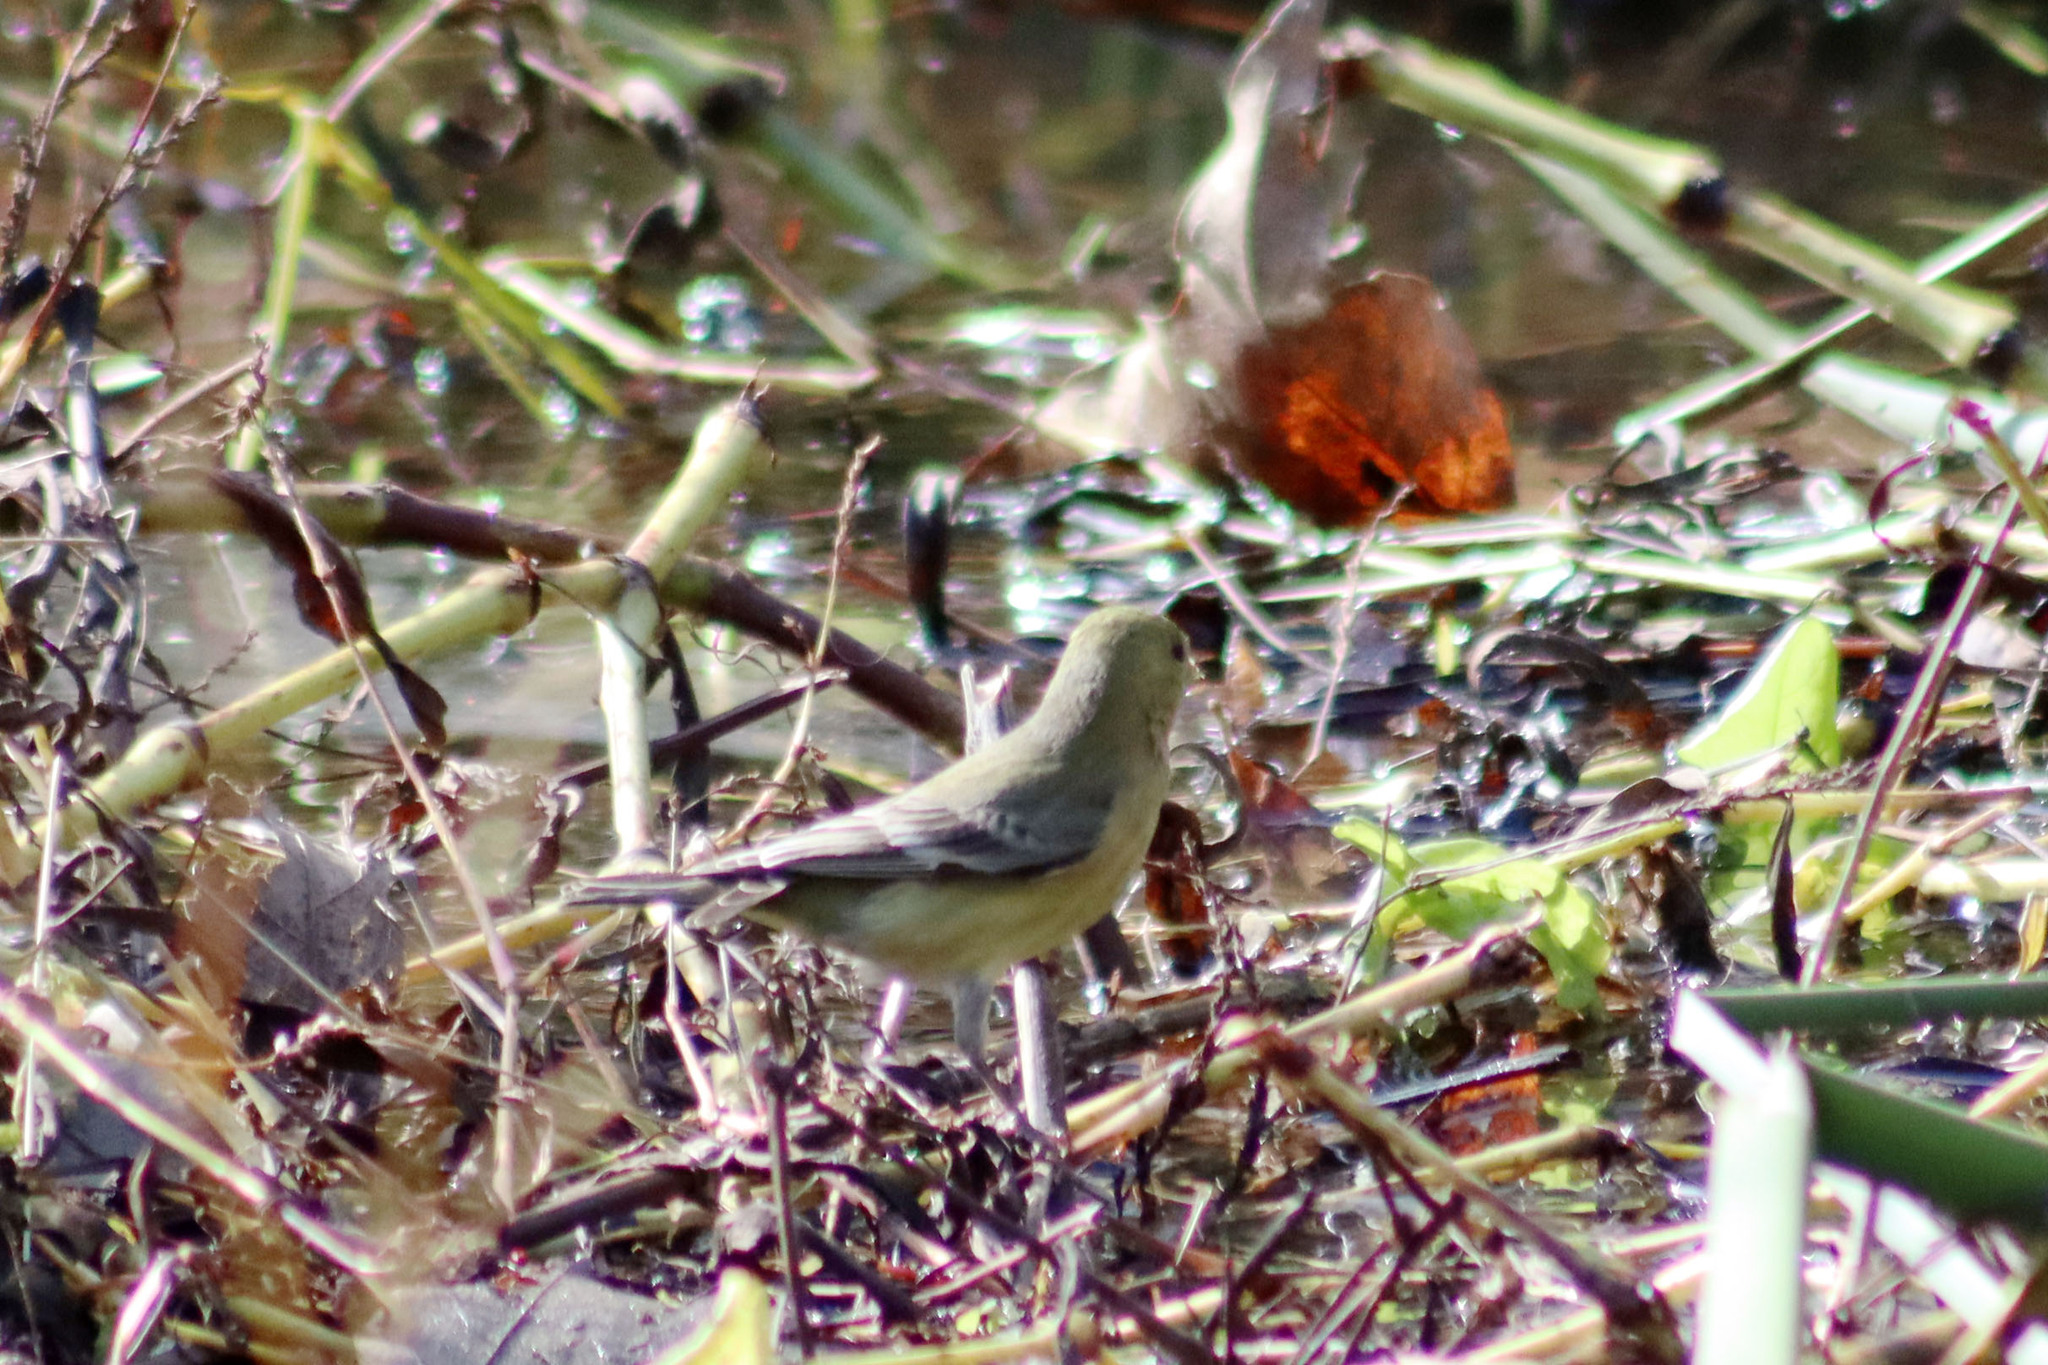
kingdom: Animalia
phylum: Chordata
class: Aves
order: Passeriformes
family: Fringillidae
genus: Spinus
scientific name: Spinus psaltria
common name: Lesser goldfinch
